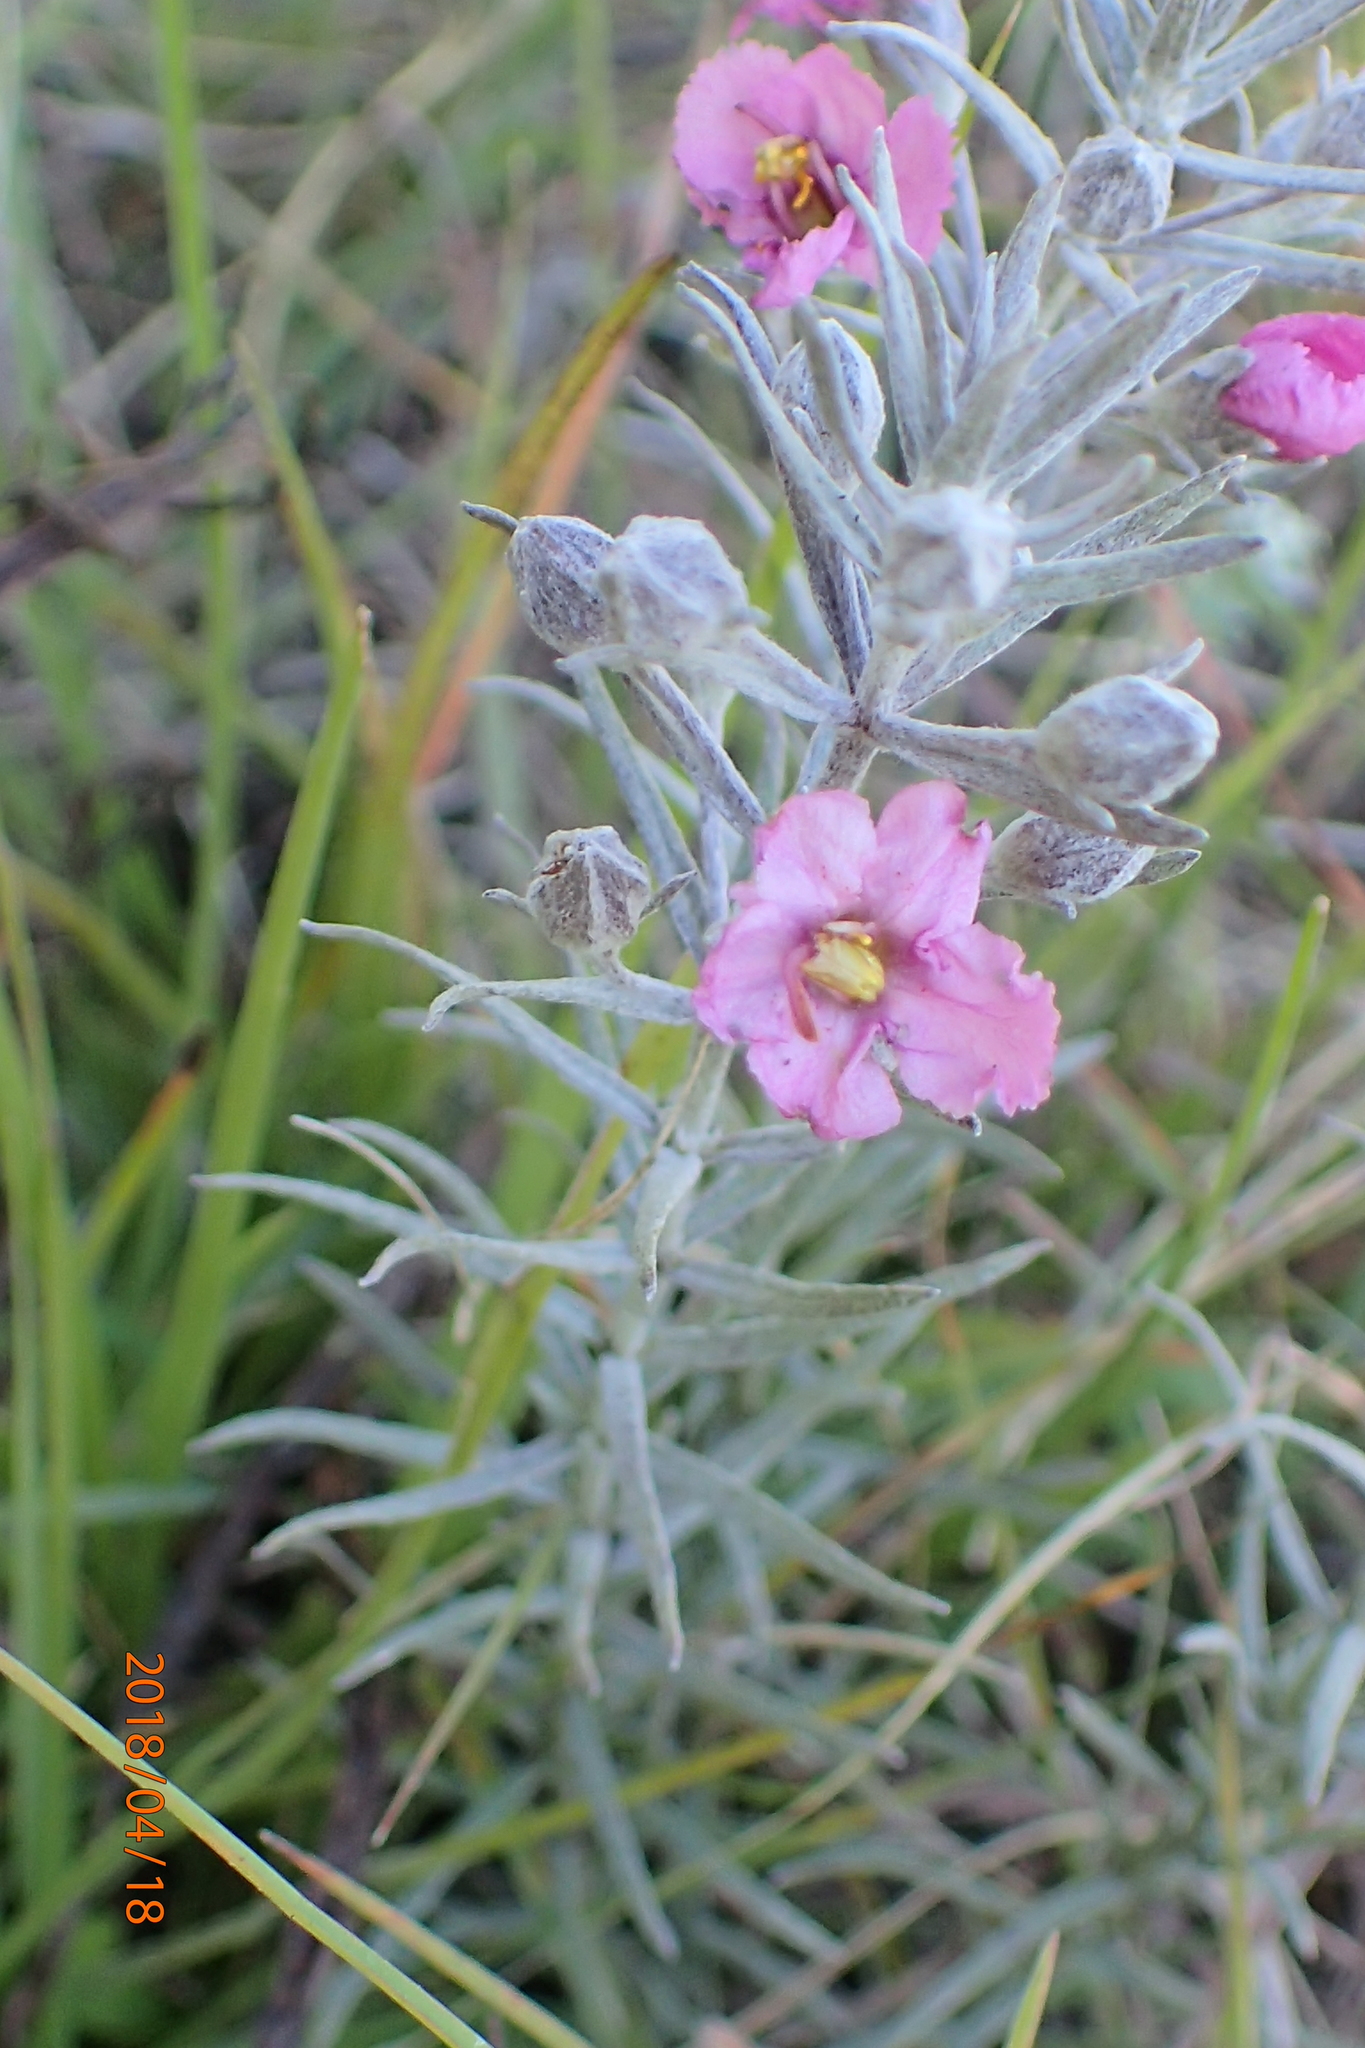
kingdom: Plantae
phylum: Tracheophyta
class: Magnoliopsida
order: Lamiales
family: Orobanchaceae
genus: Sopubia
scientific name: Sopubia cana
